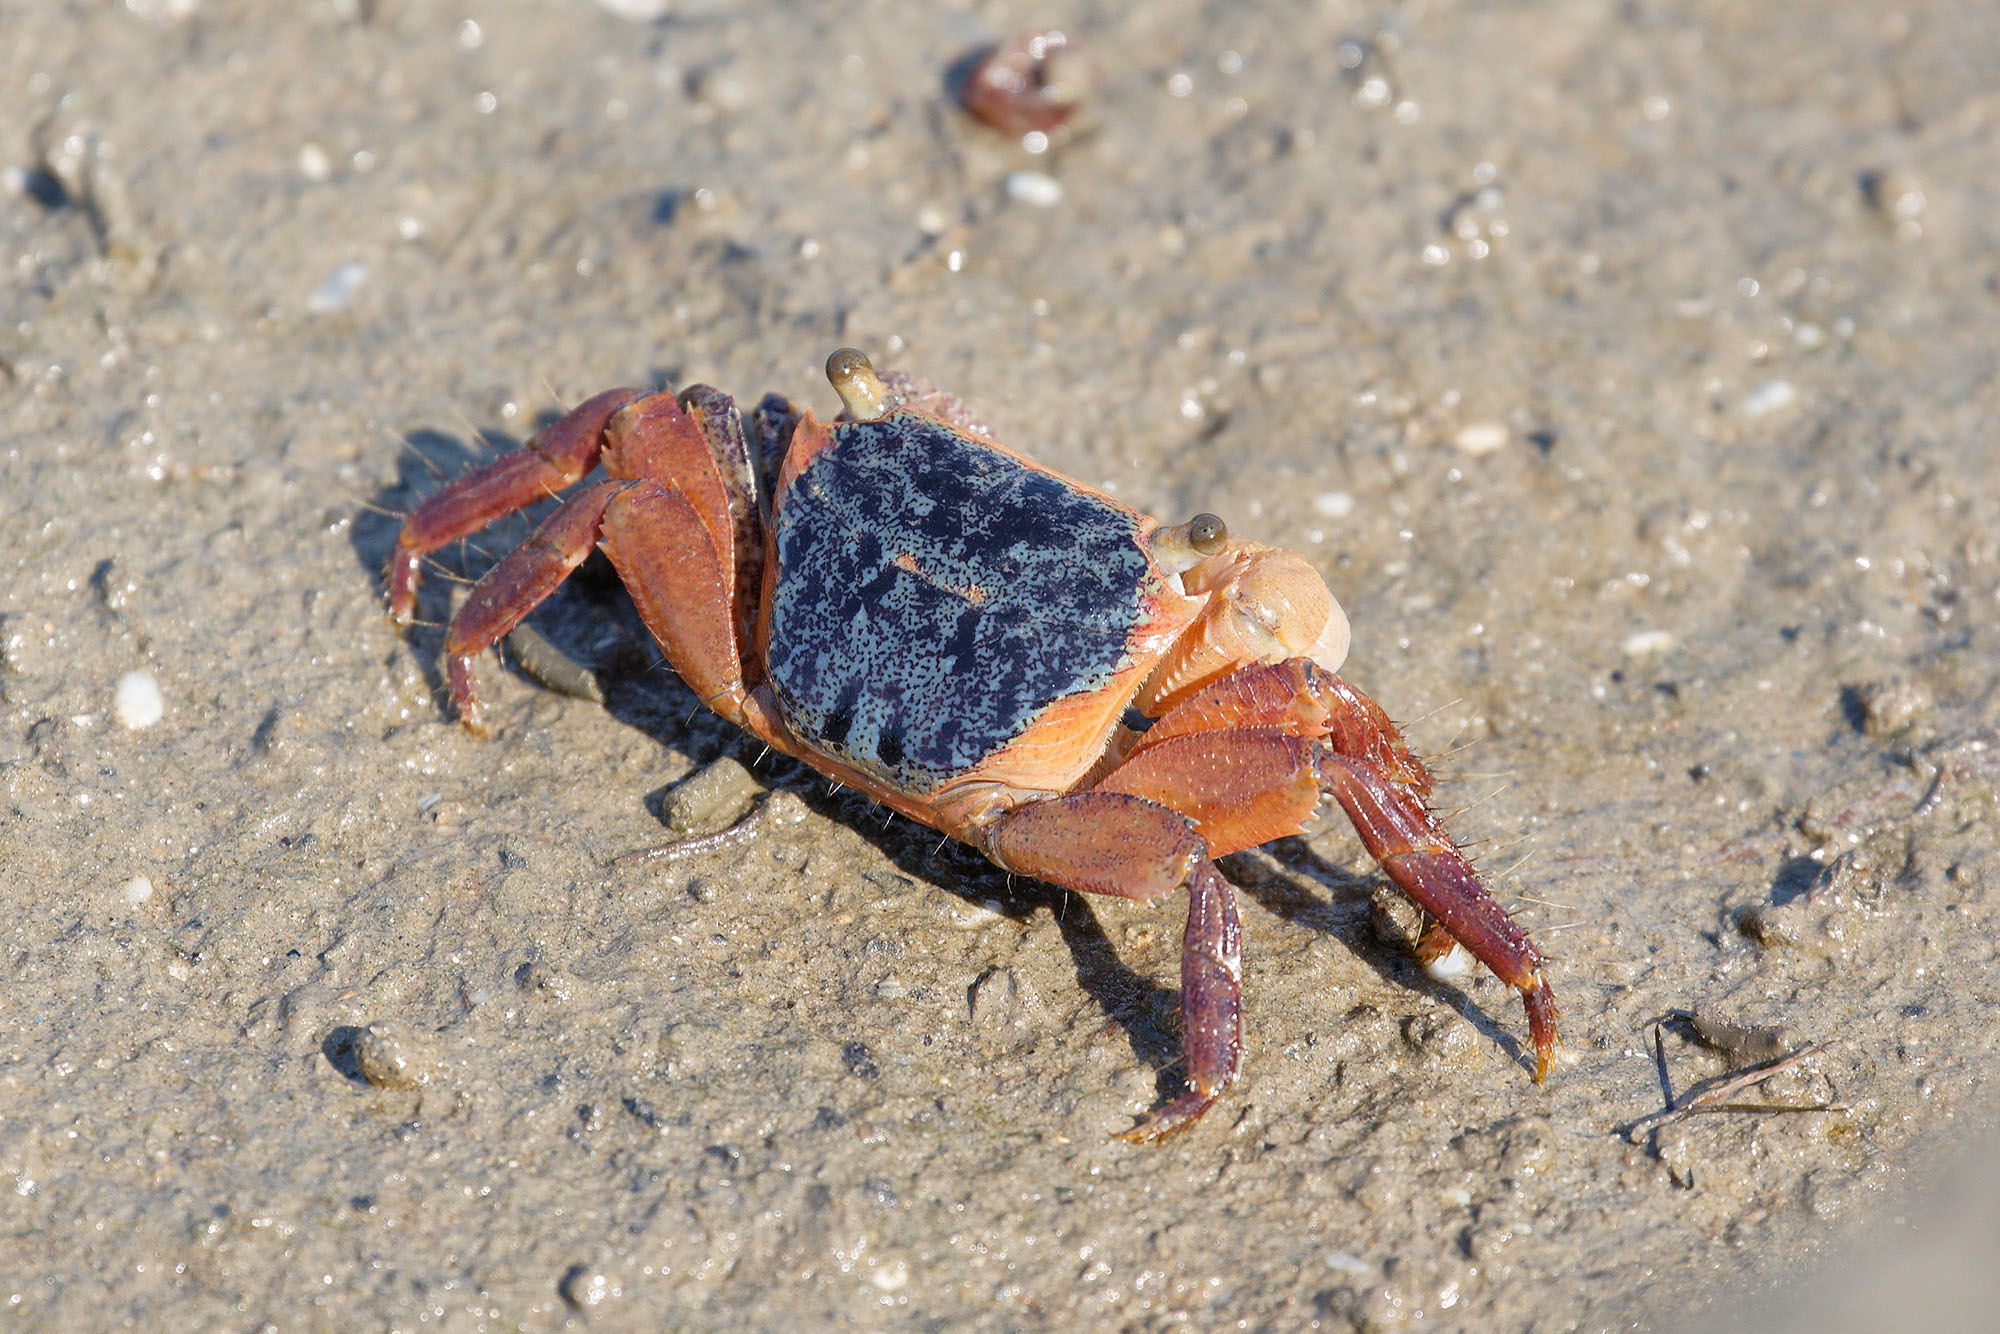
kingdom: Animalia
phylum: Arthropoda
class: Malacostraca
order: Decapoda
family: Grapsidae
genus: Metopograpsus
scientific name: Metopograpsus latifrons
